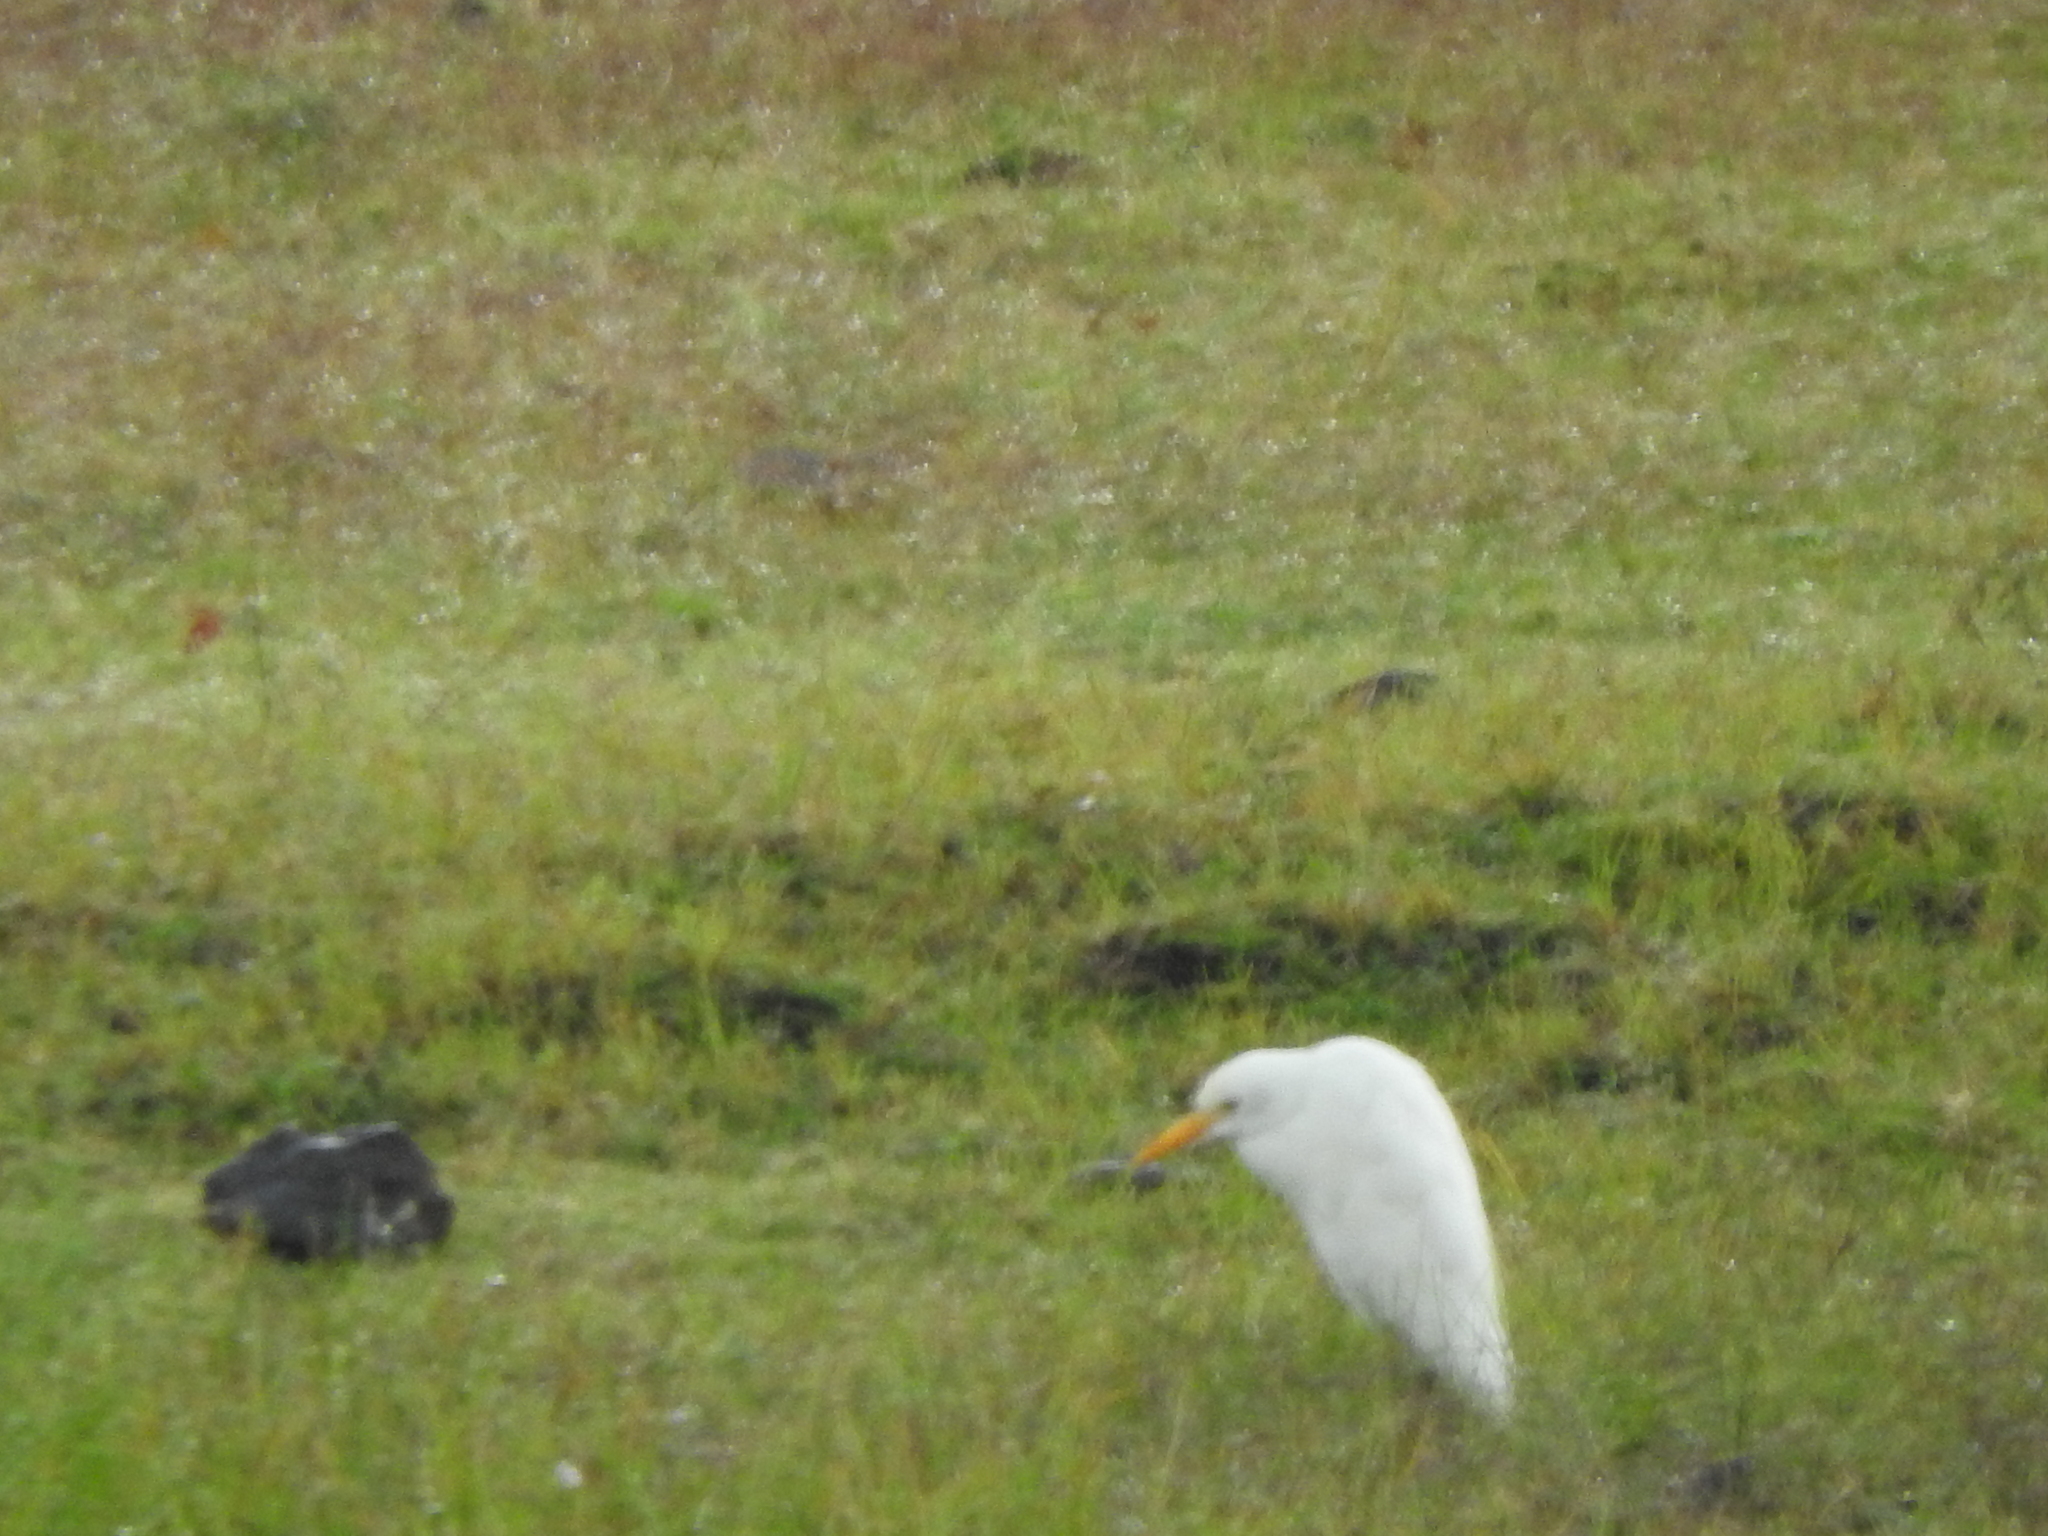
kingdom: Animalia
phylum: Chordata
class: Aves
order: Pelecaniformes
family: Ardeidae
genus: Bubulcus
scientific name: Bubulcus ibis
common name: Cattle egret
